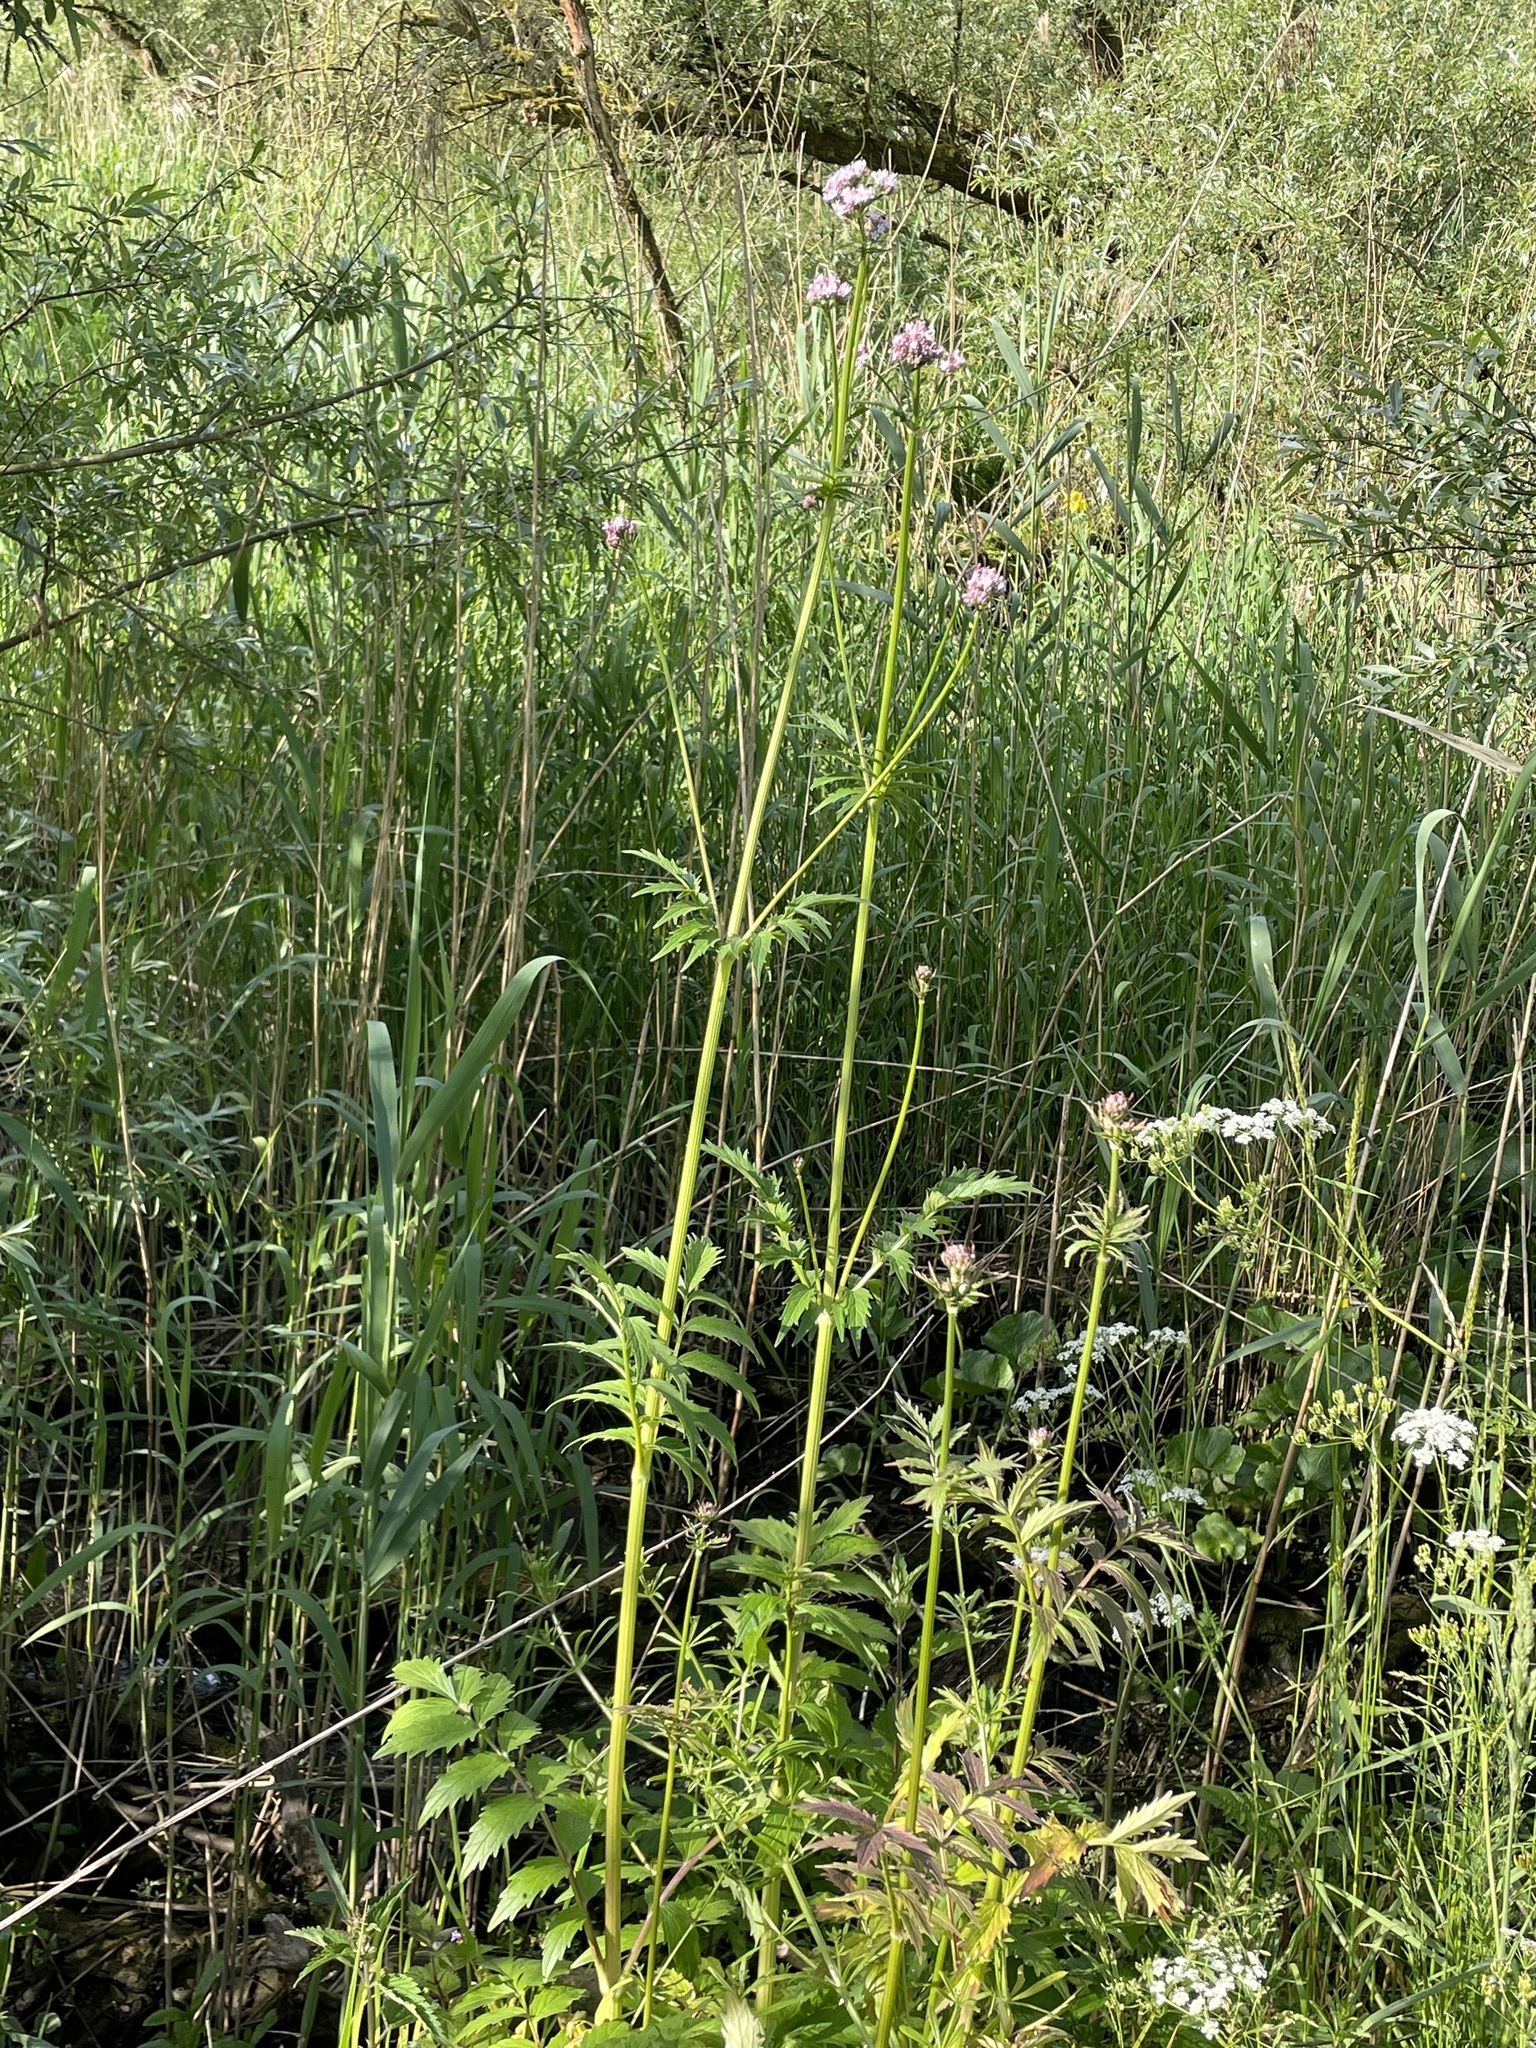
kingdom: Plantae
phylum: Tracheophyta
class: Magnoliopsida
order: Dipsacales
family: Caprifoliaceae
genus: Valeriana
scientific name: Valeriana officinalis
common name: Common valerian
